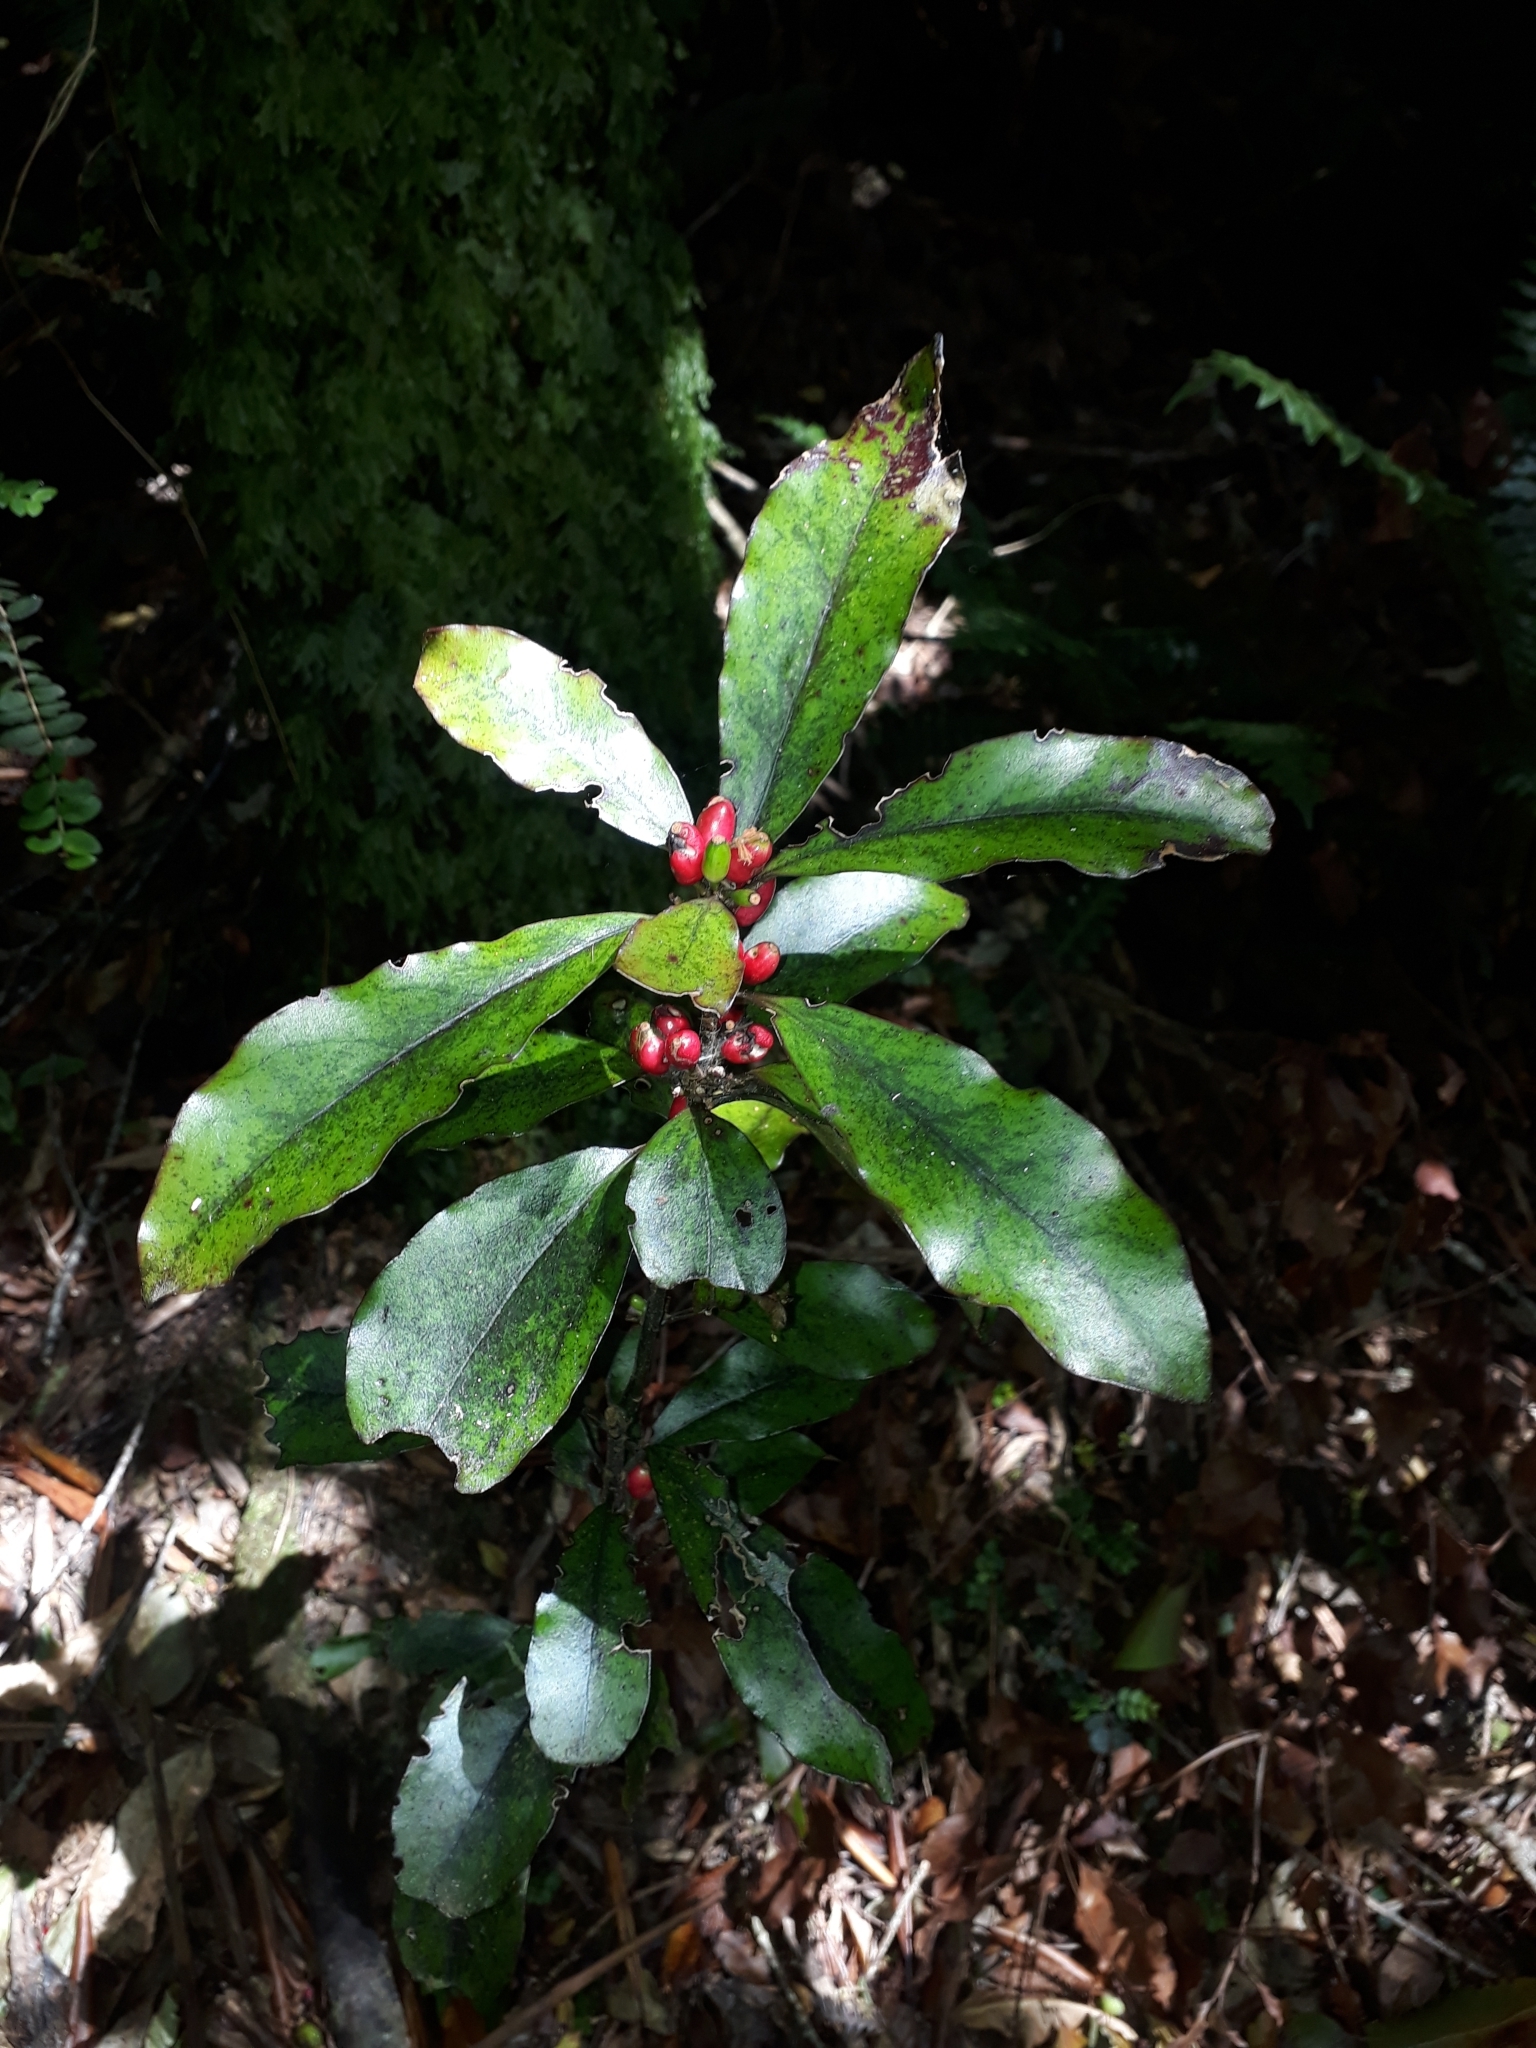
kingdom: Plantae
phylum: Tracheophyta
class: Magnoliopsida
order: Asterales
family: Alseuosmiaceae
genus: Alseuosmia
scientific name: Alseuosmia pusilla
